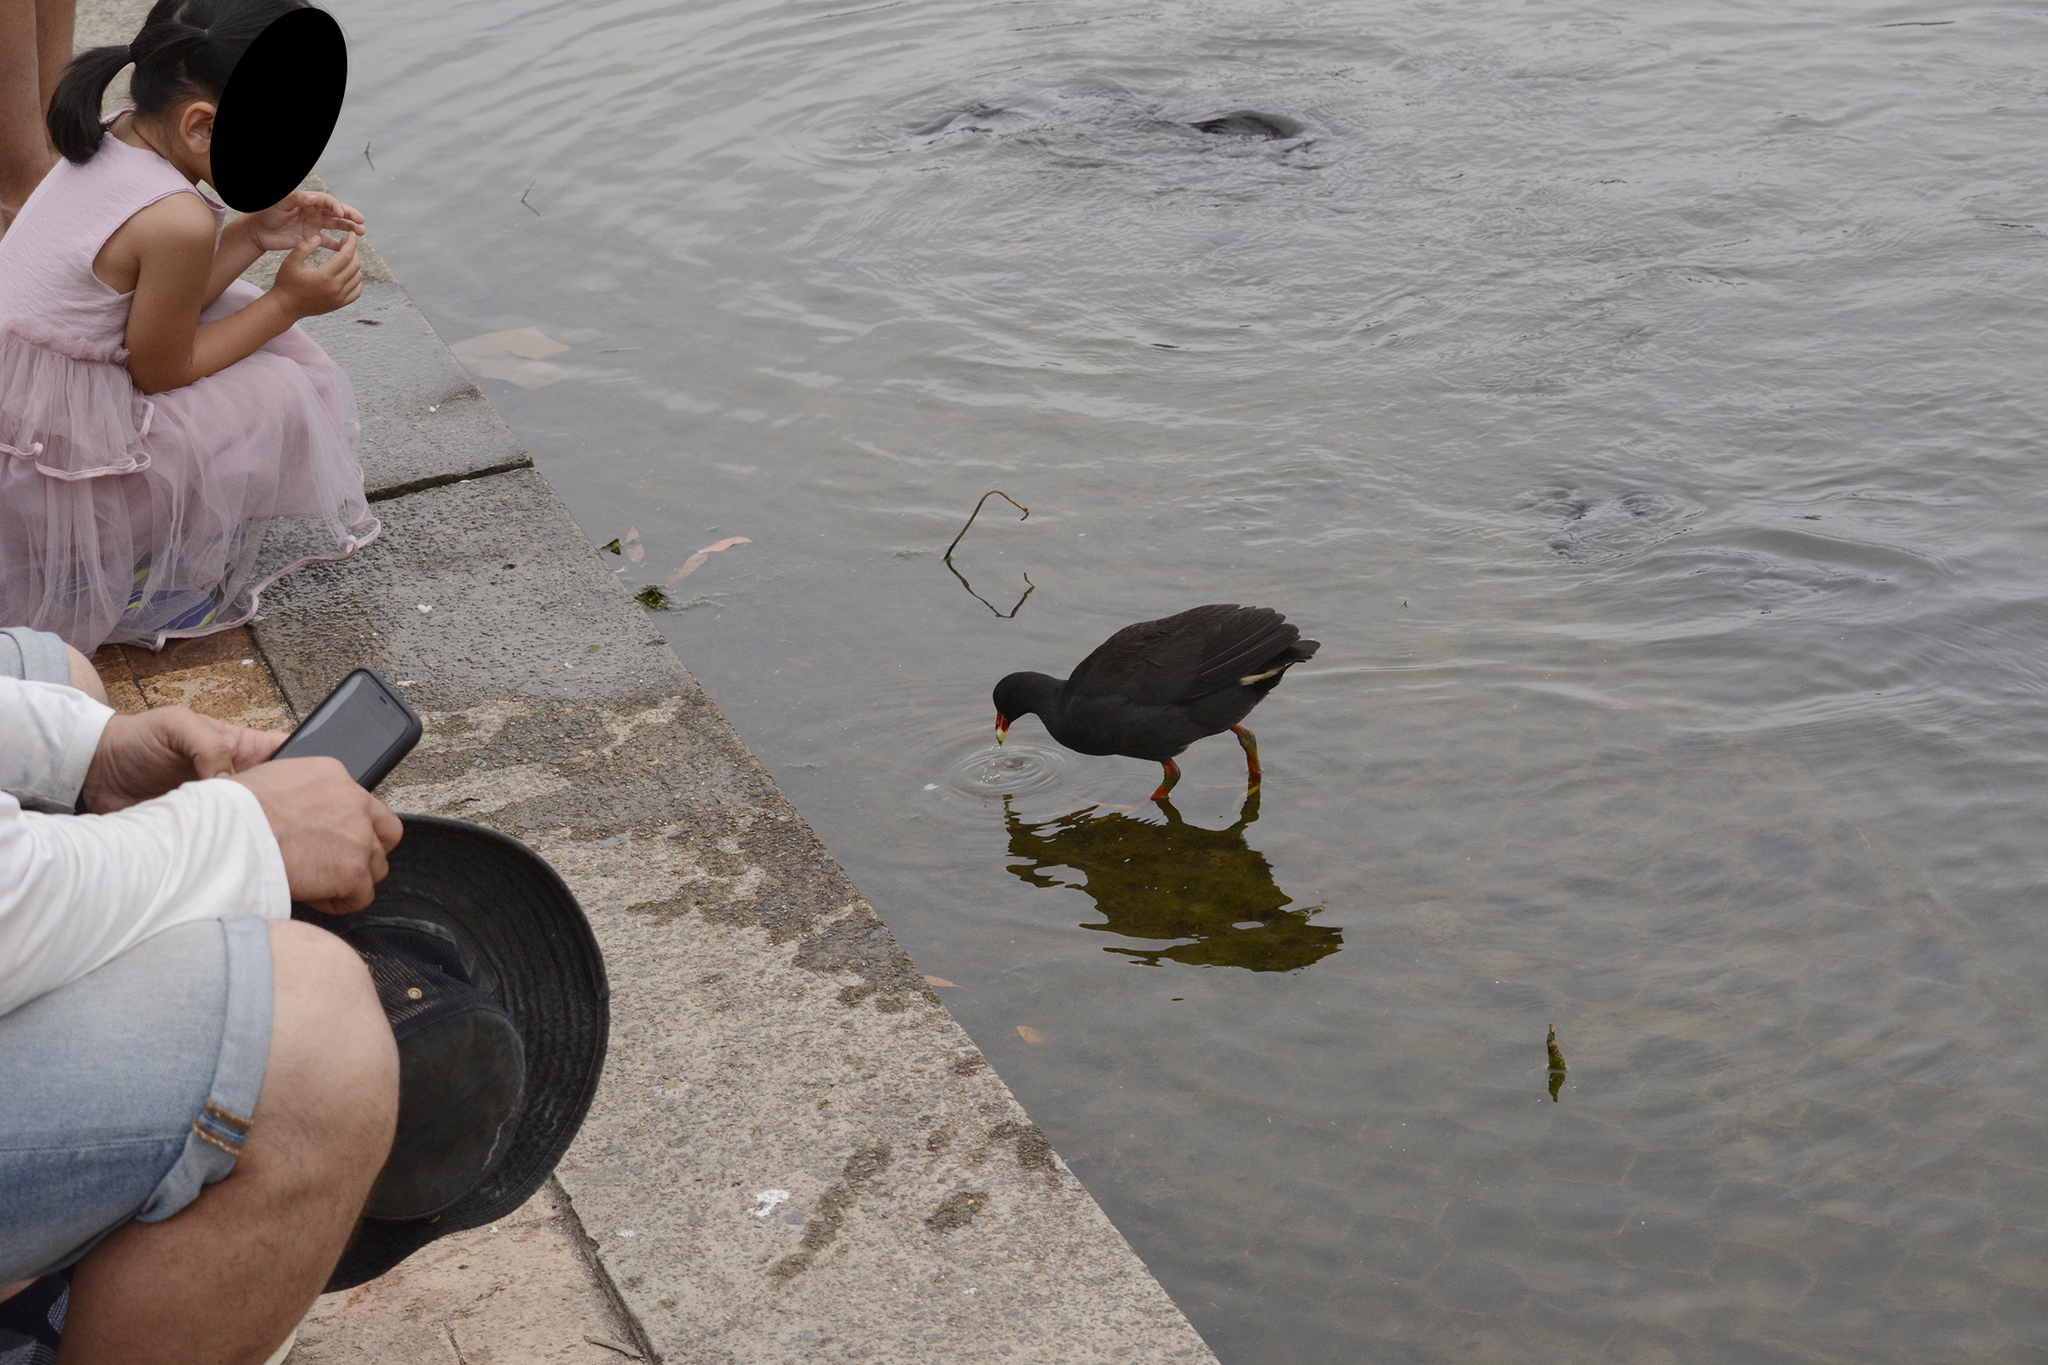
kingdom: Animalia
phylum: Chordata
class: Aves
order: Gruiformes
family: Rallidae
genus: Gallinula
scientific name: Gallinula tenebrosa
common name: Dusky moorhen
